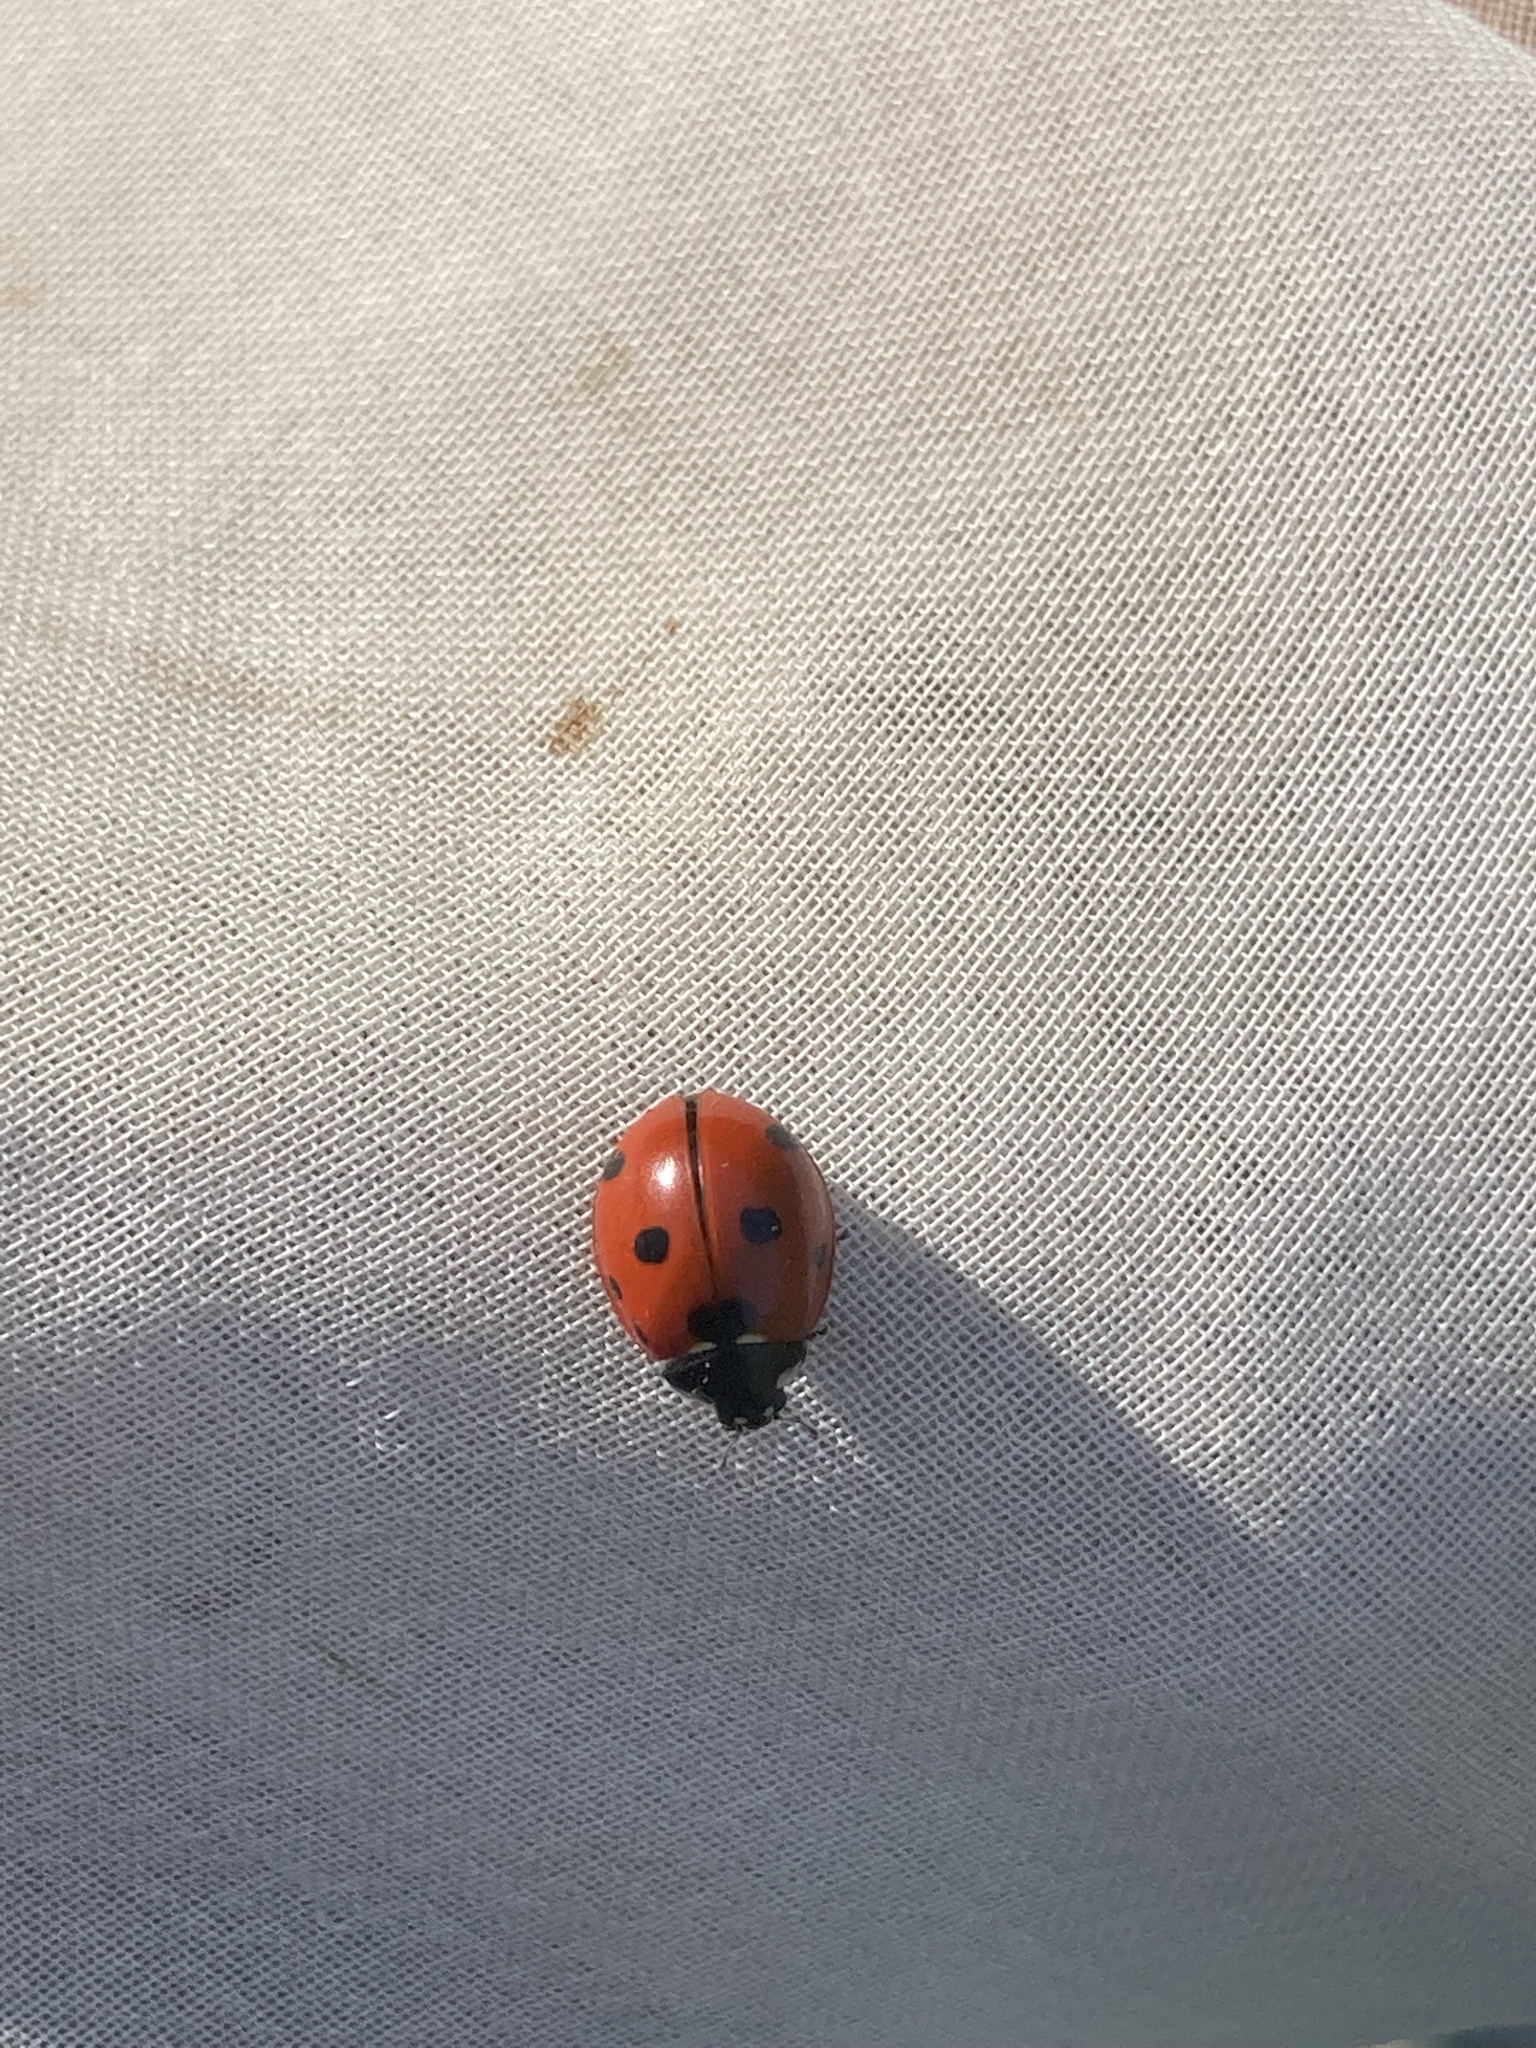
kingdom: Animalia
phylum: Arthropoda
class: Insecta
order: Coleoptera
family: Coccinellidae
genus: Coccinella
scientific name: Coccinella septempunctata
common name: Sevenspotted lady beetle
